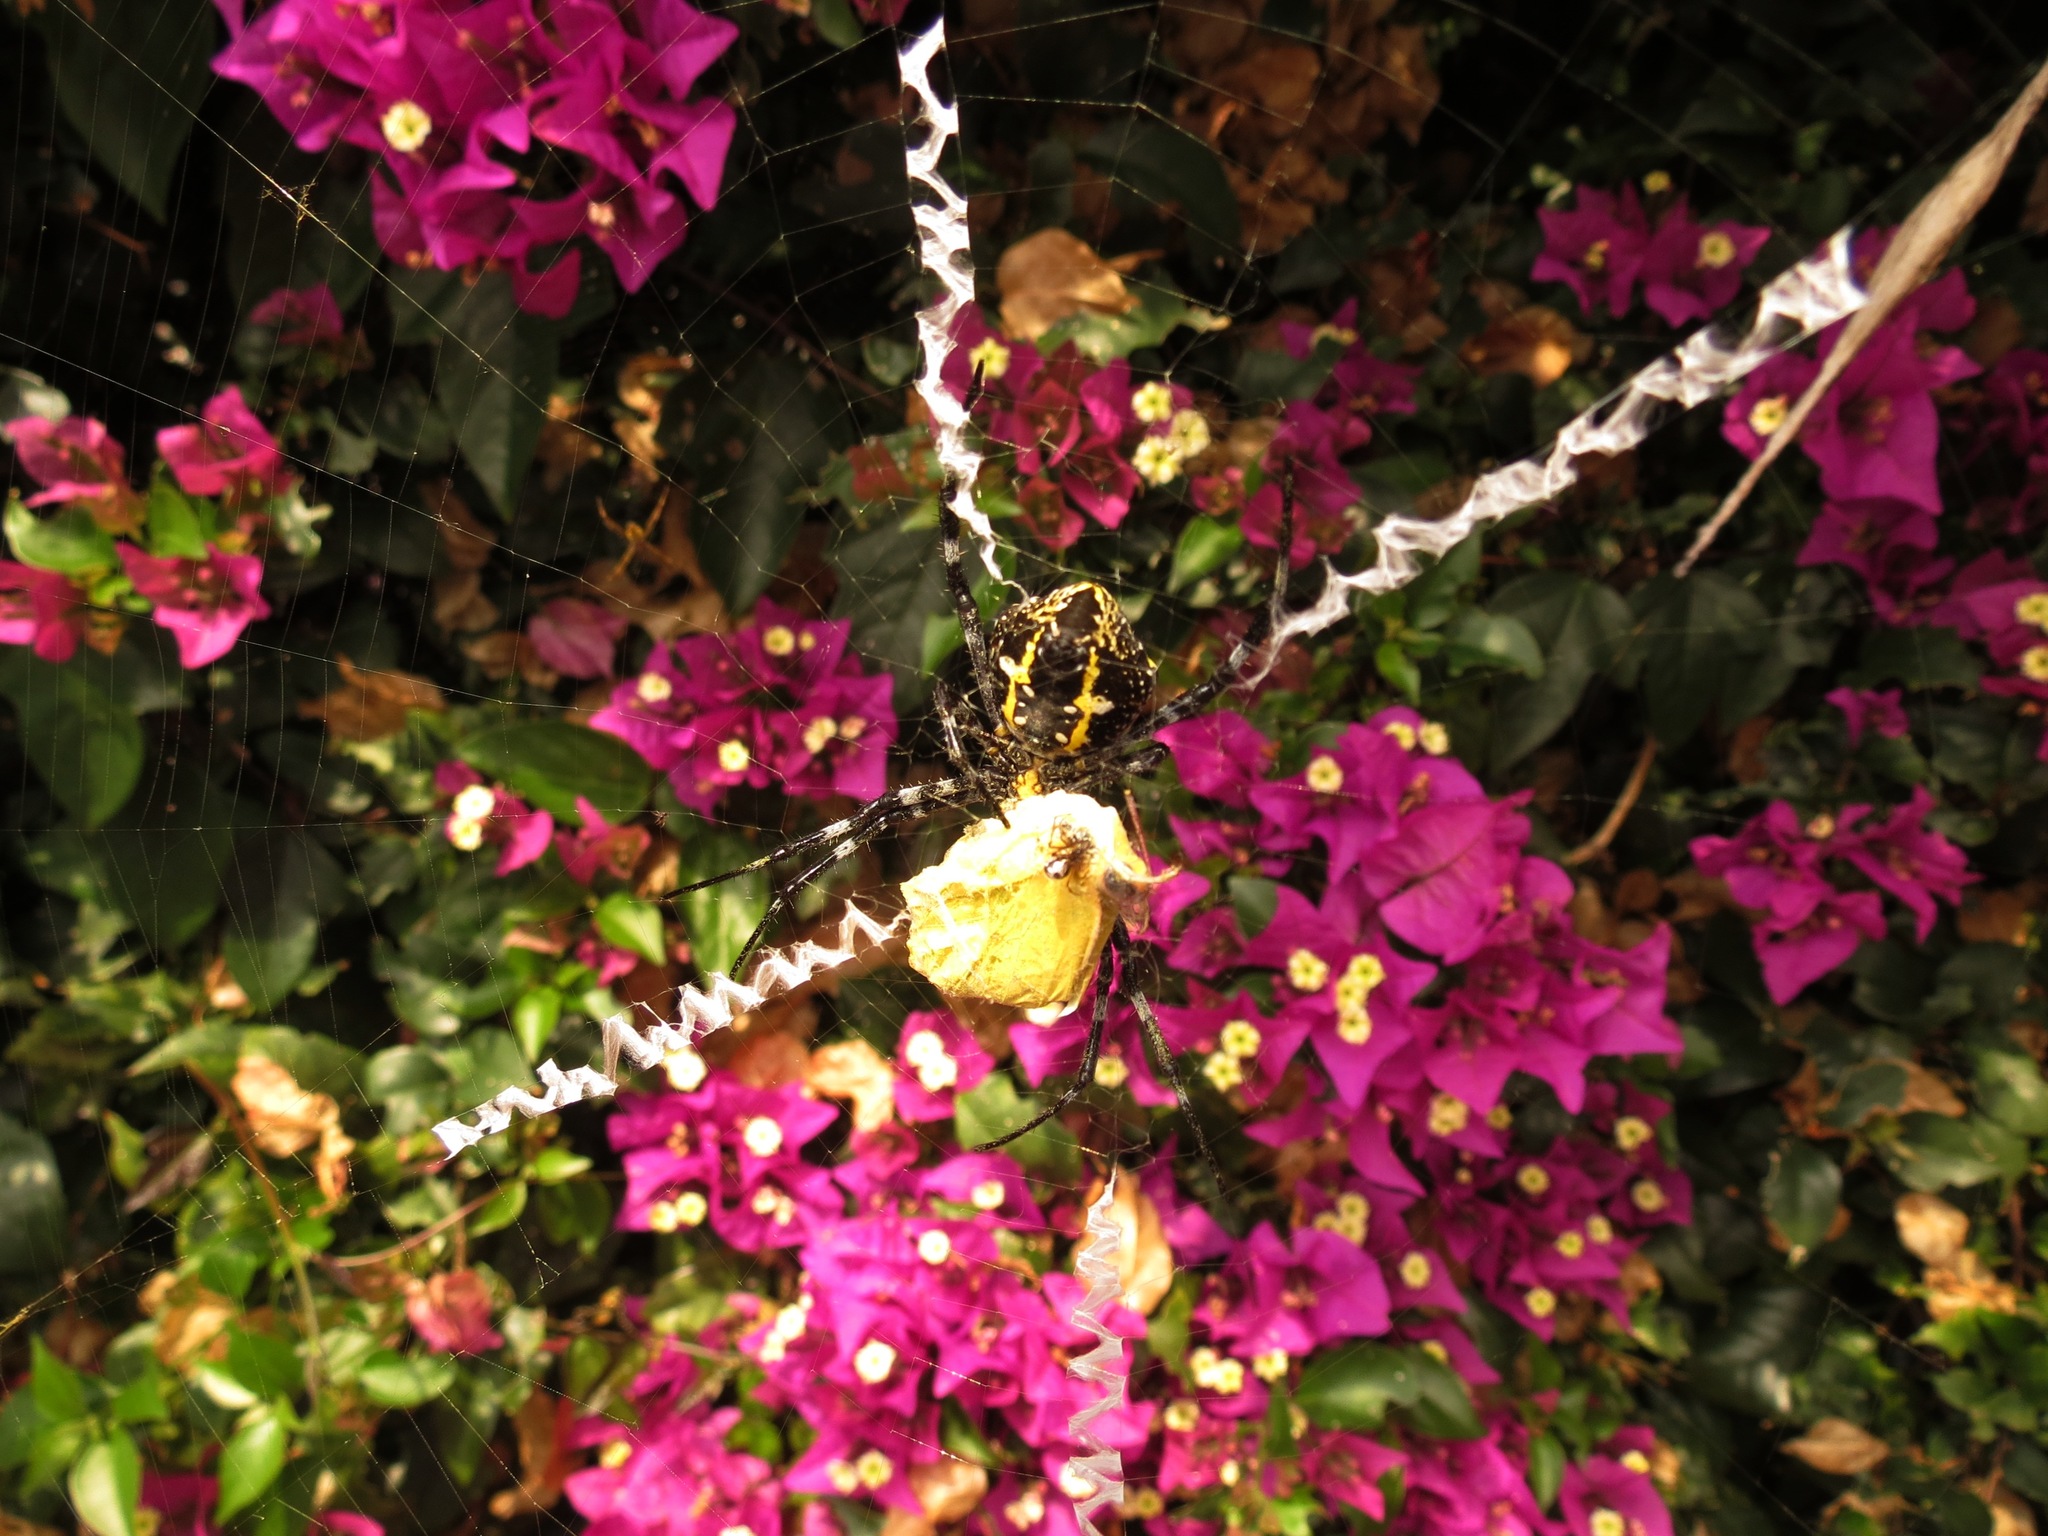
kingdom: Animalia
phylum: Arthropoda
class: Arachnida
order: Araneae
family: Araneidae
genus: Argiope
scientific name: Argiope appensa
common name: Garden spider
